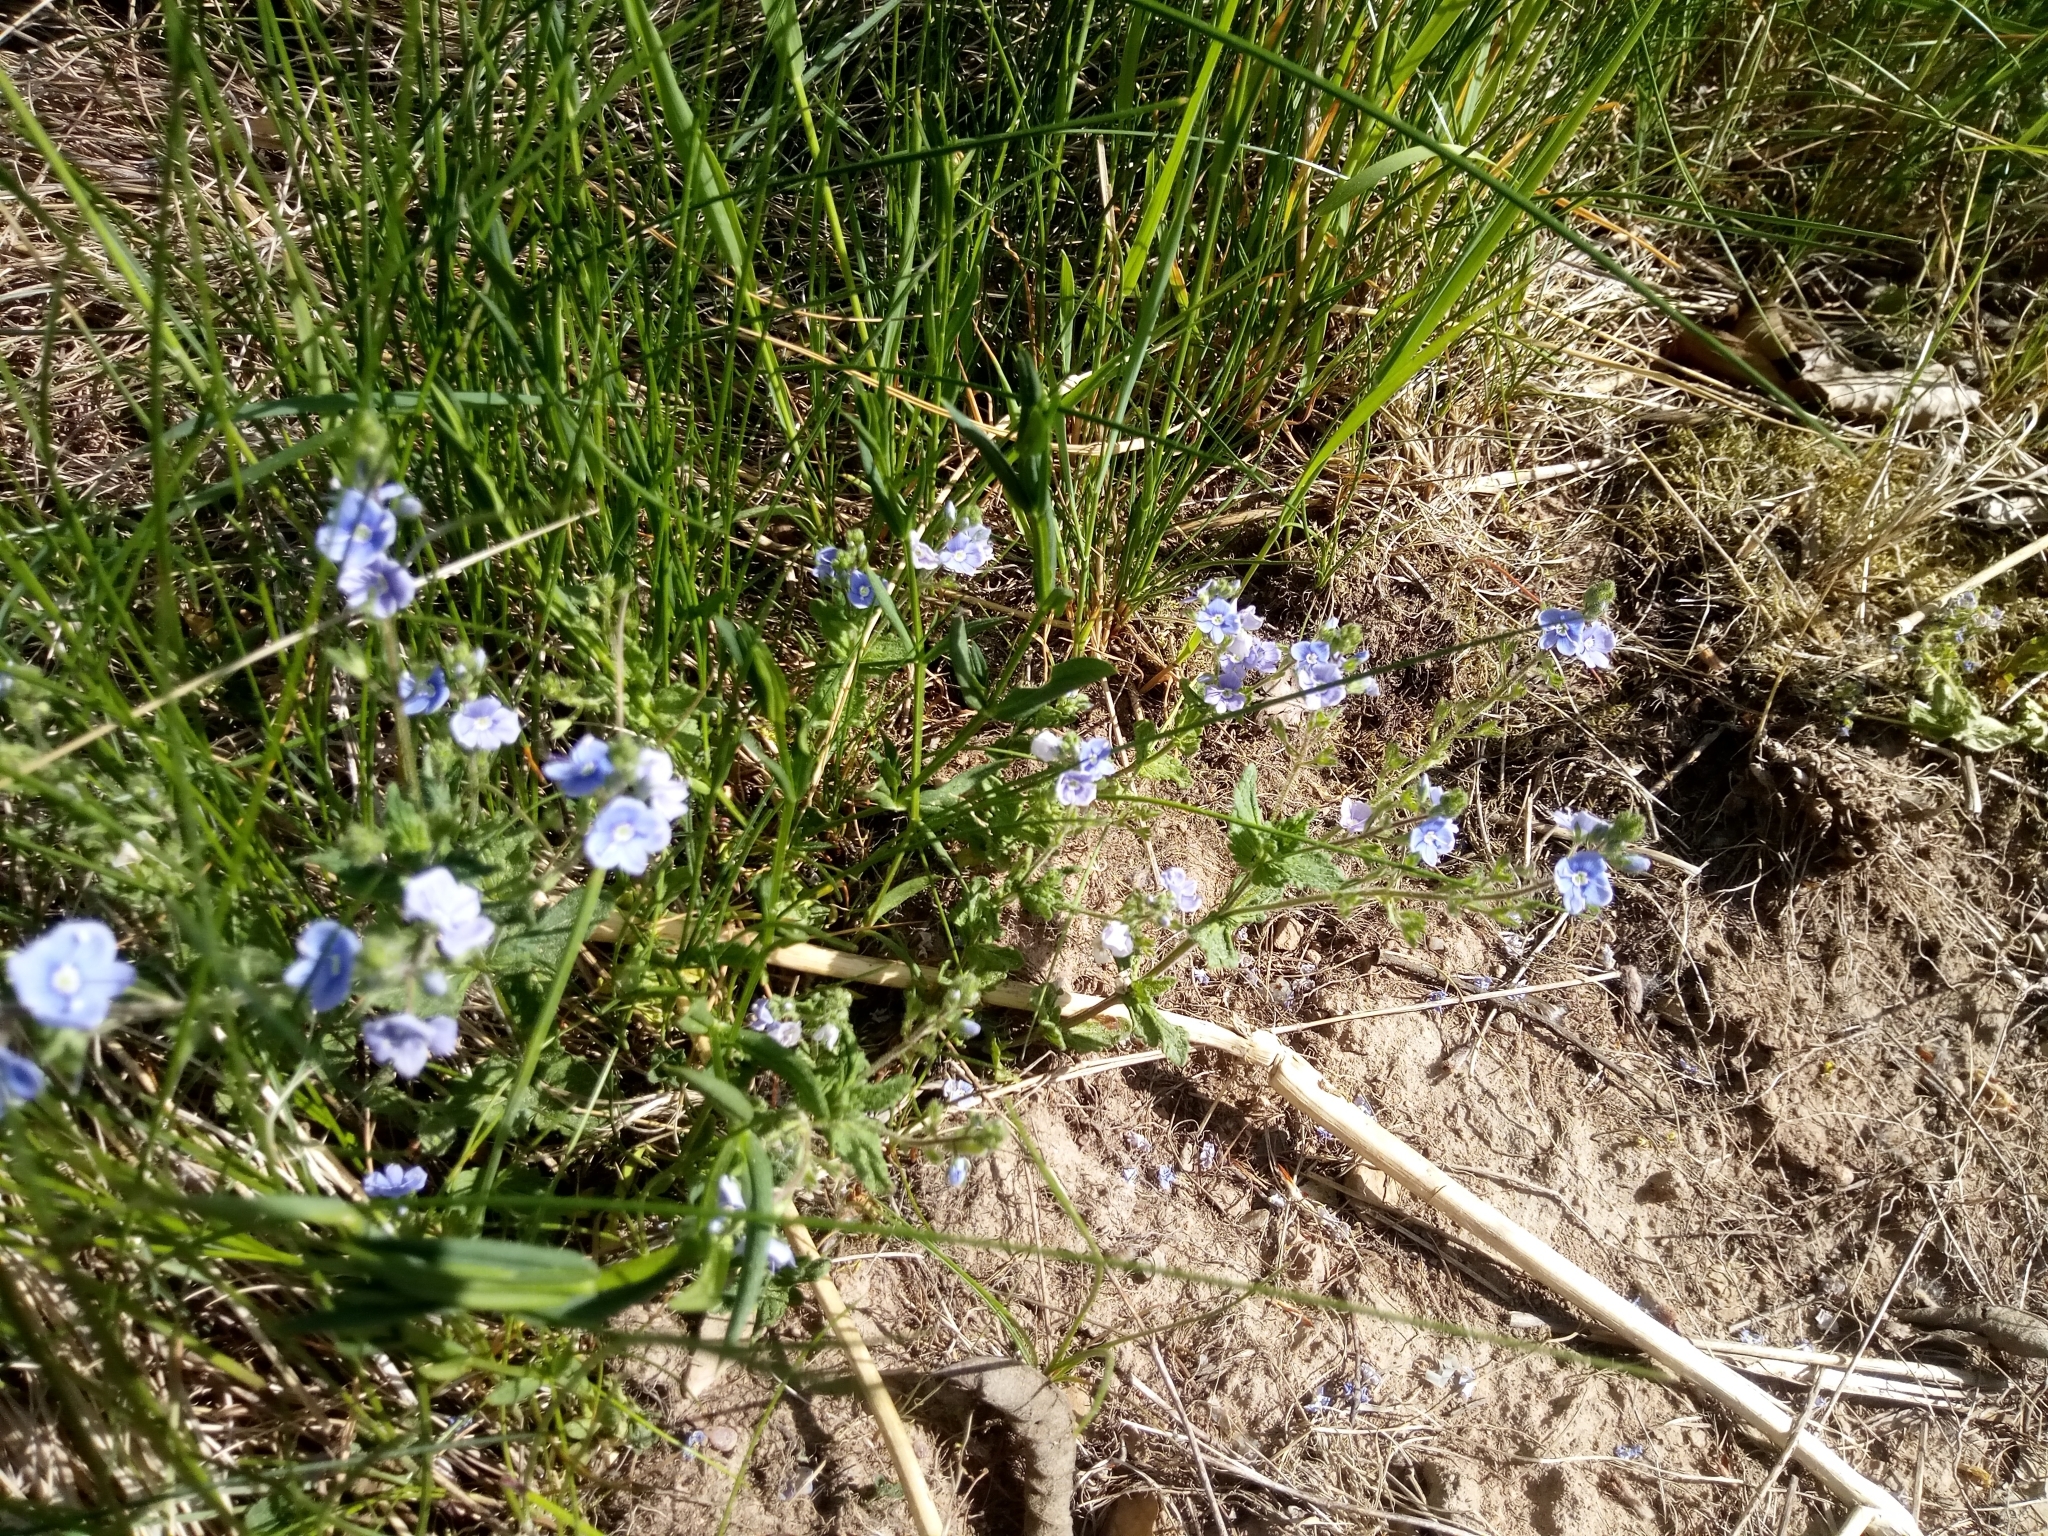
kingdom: Plantae
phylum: Tracheophyta
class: Magnoliopsida
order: Lamiales
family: Plantaginaceae
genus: Veronica
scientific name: Veronica chamaedrys
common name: Germander speedwell
